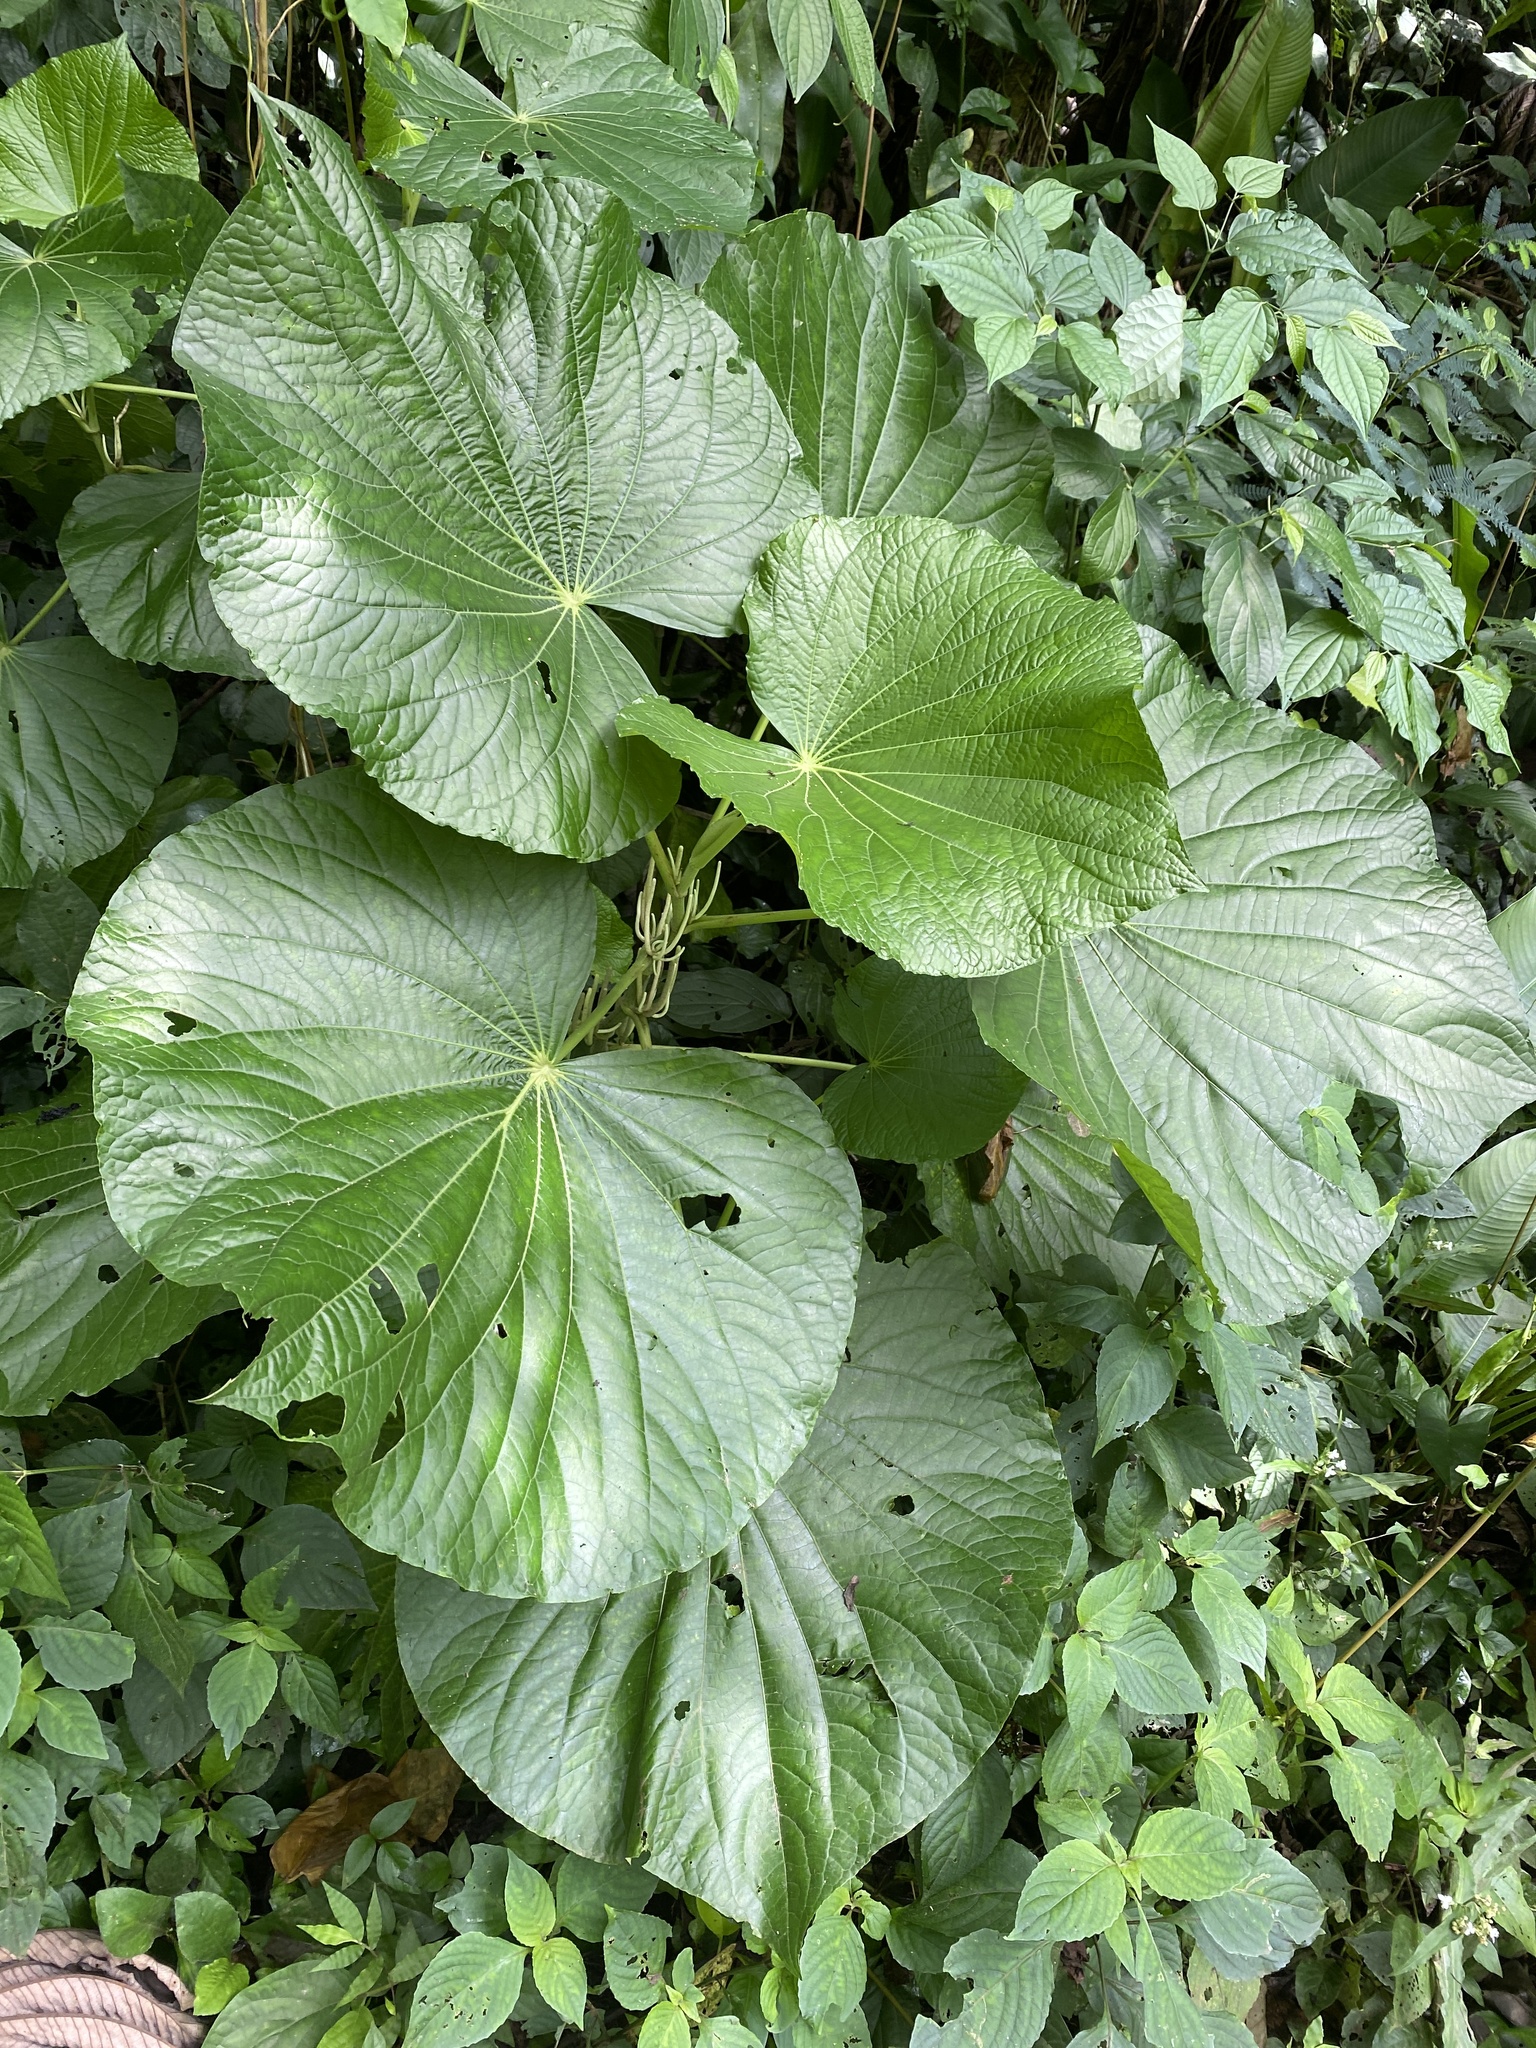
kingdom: Plantae
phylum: Tracheophyta
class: Magnoliopsida
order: Piperales
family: Piperaceae
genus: Piper
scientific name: Piper umbellatum
